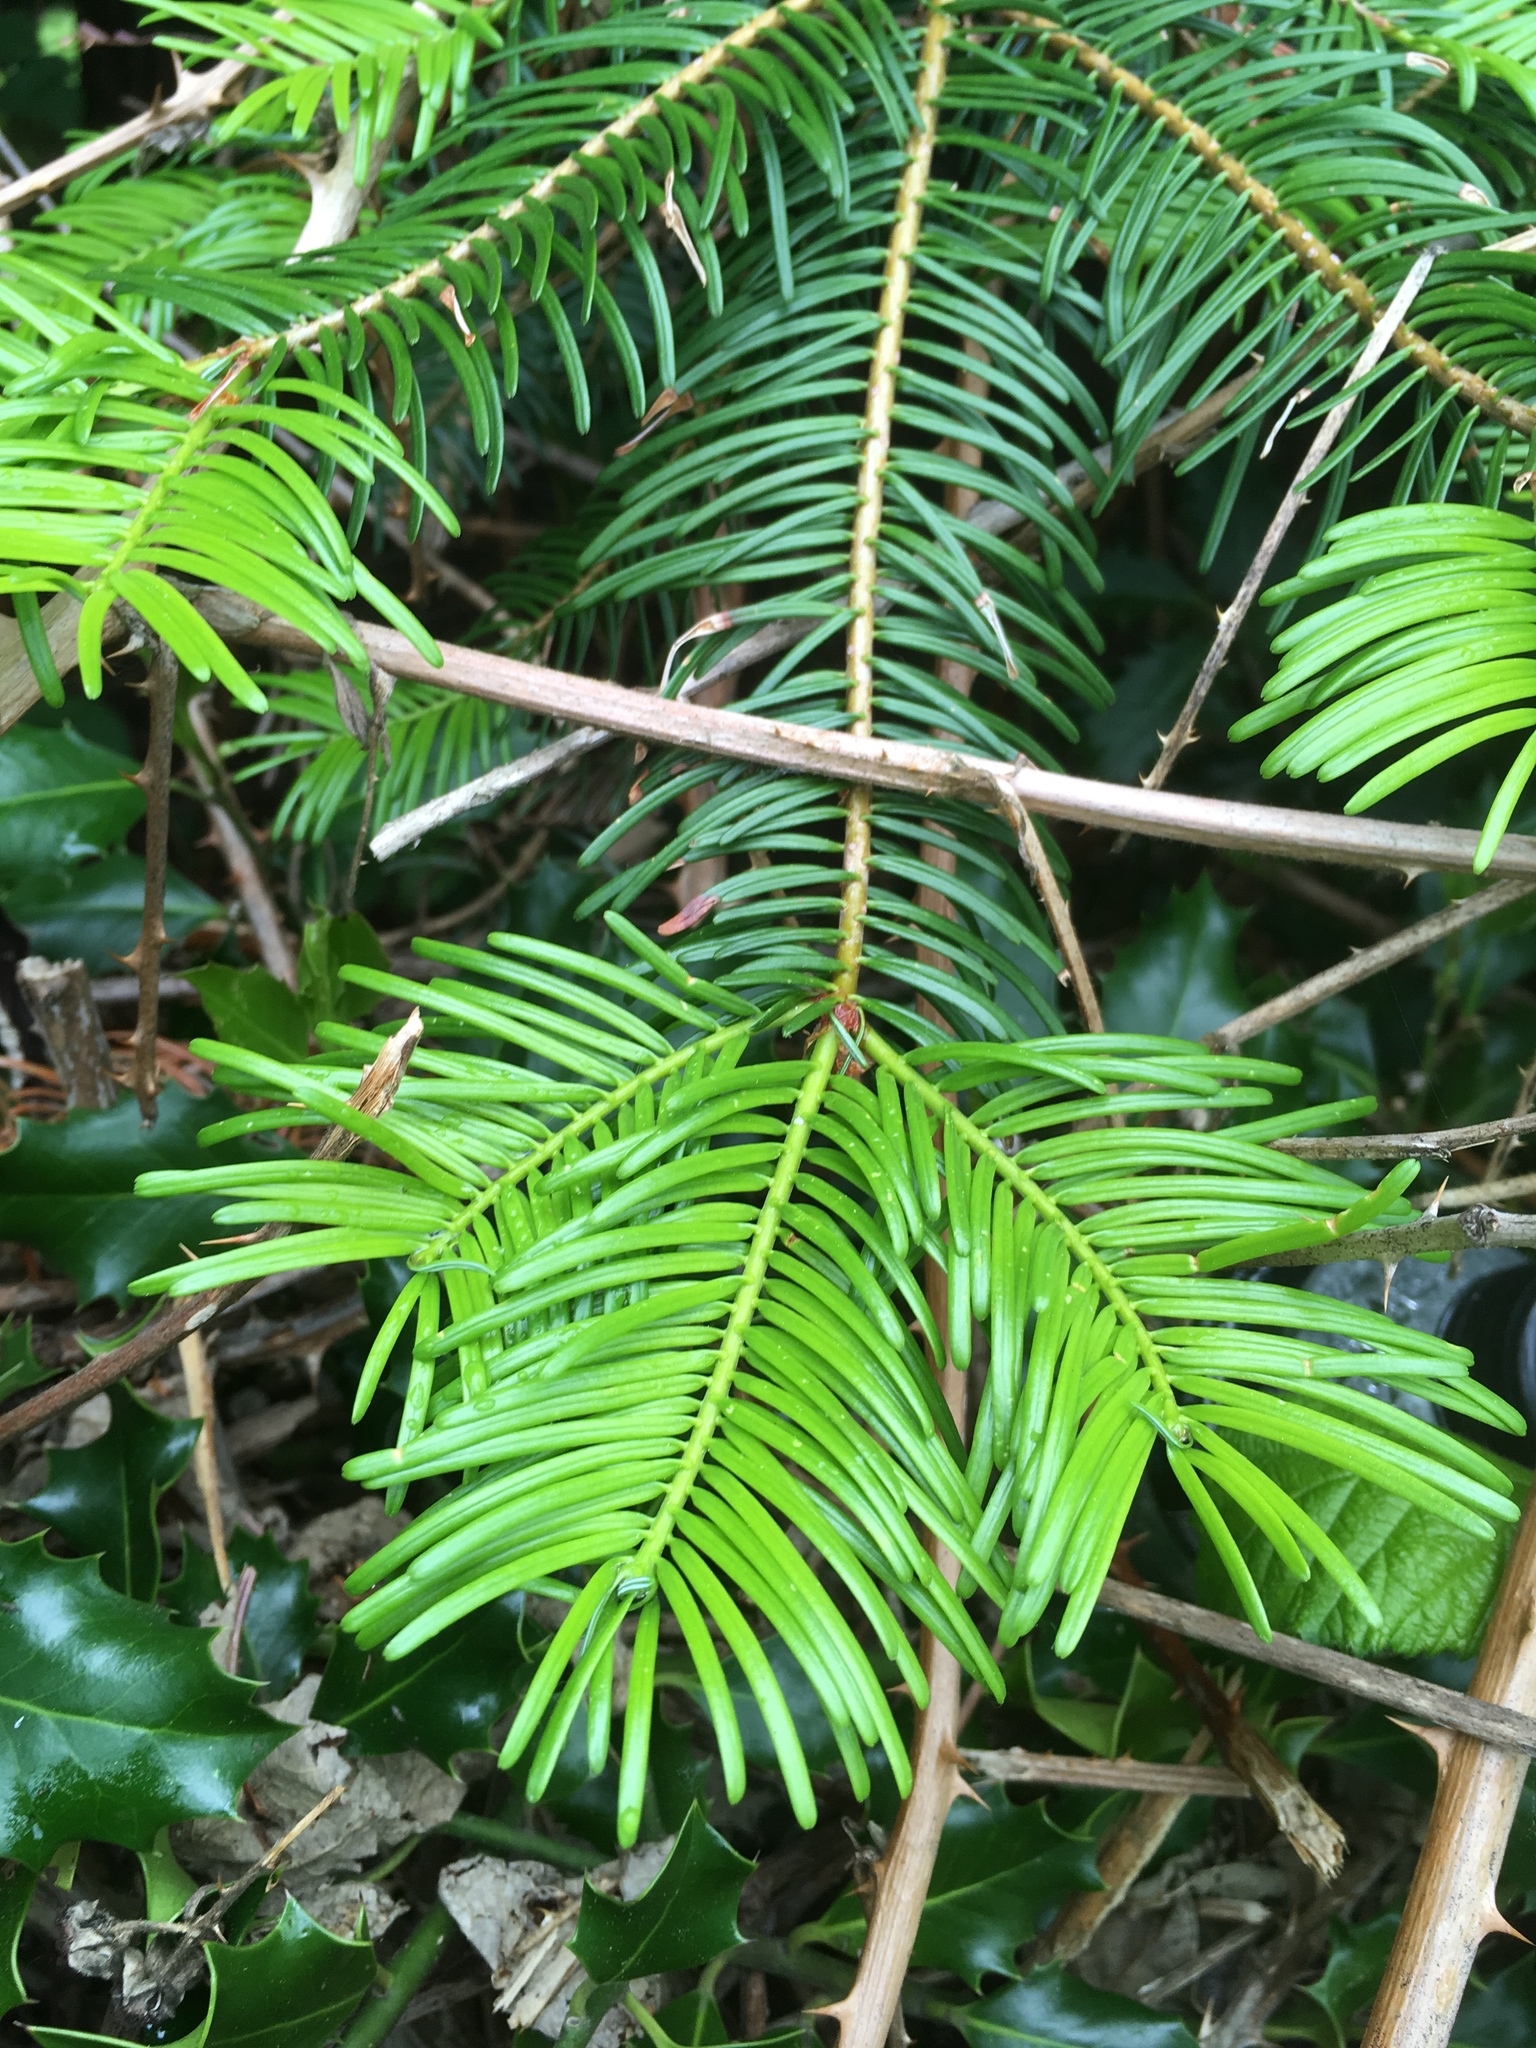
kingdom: Plantae
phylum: Tracheophyta
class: Pinopsida
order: Pinales
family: Pinaceae
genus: Abies
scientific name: Abies grandis
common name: Giant fir
